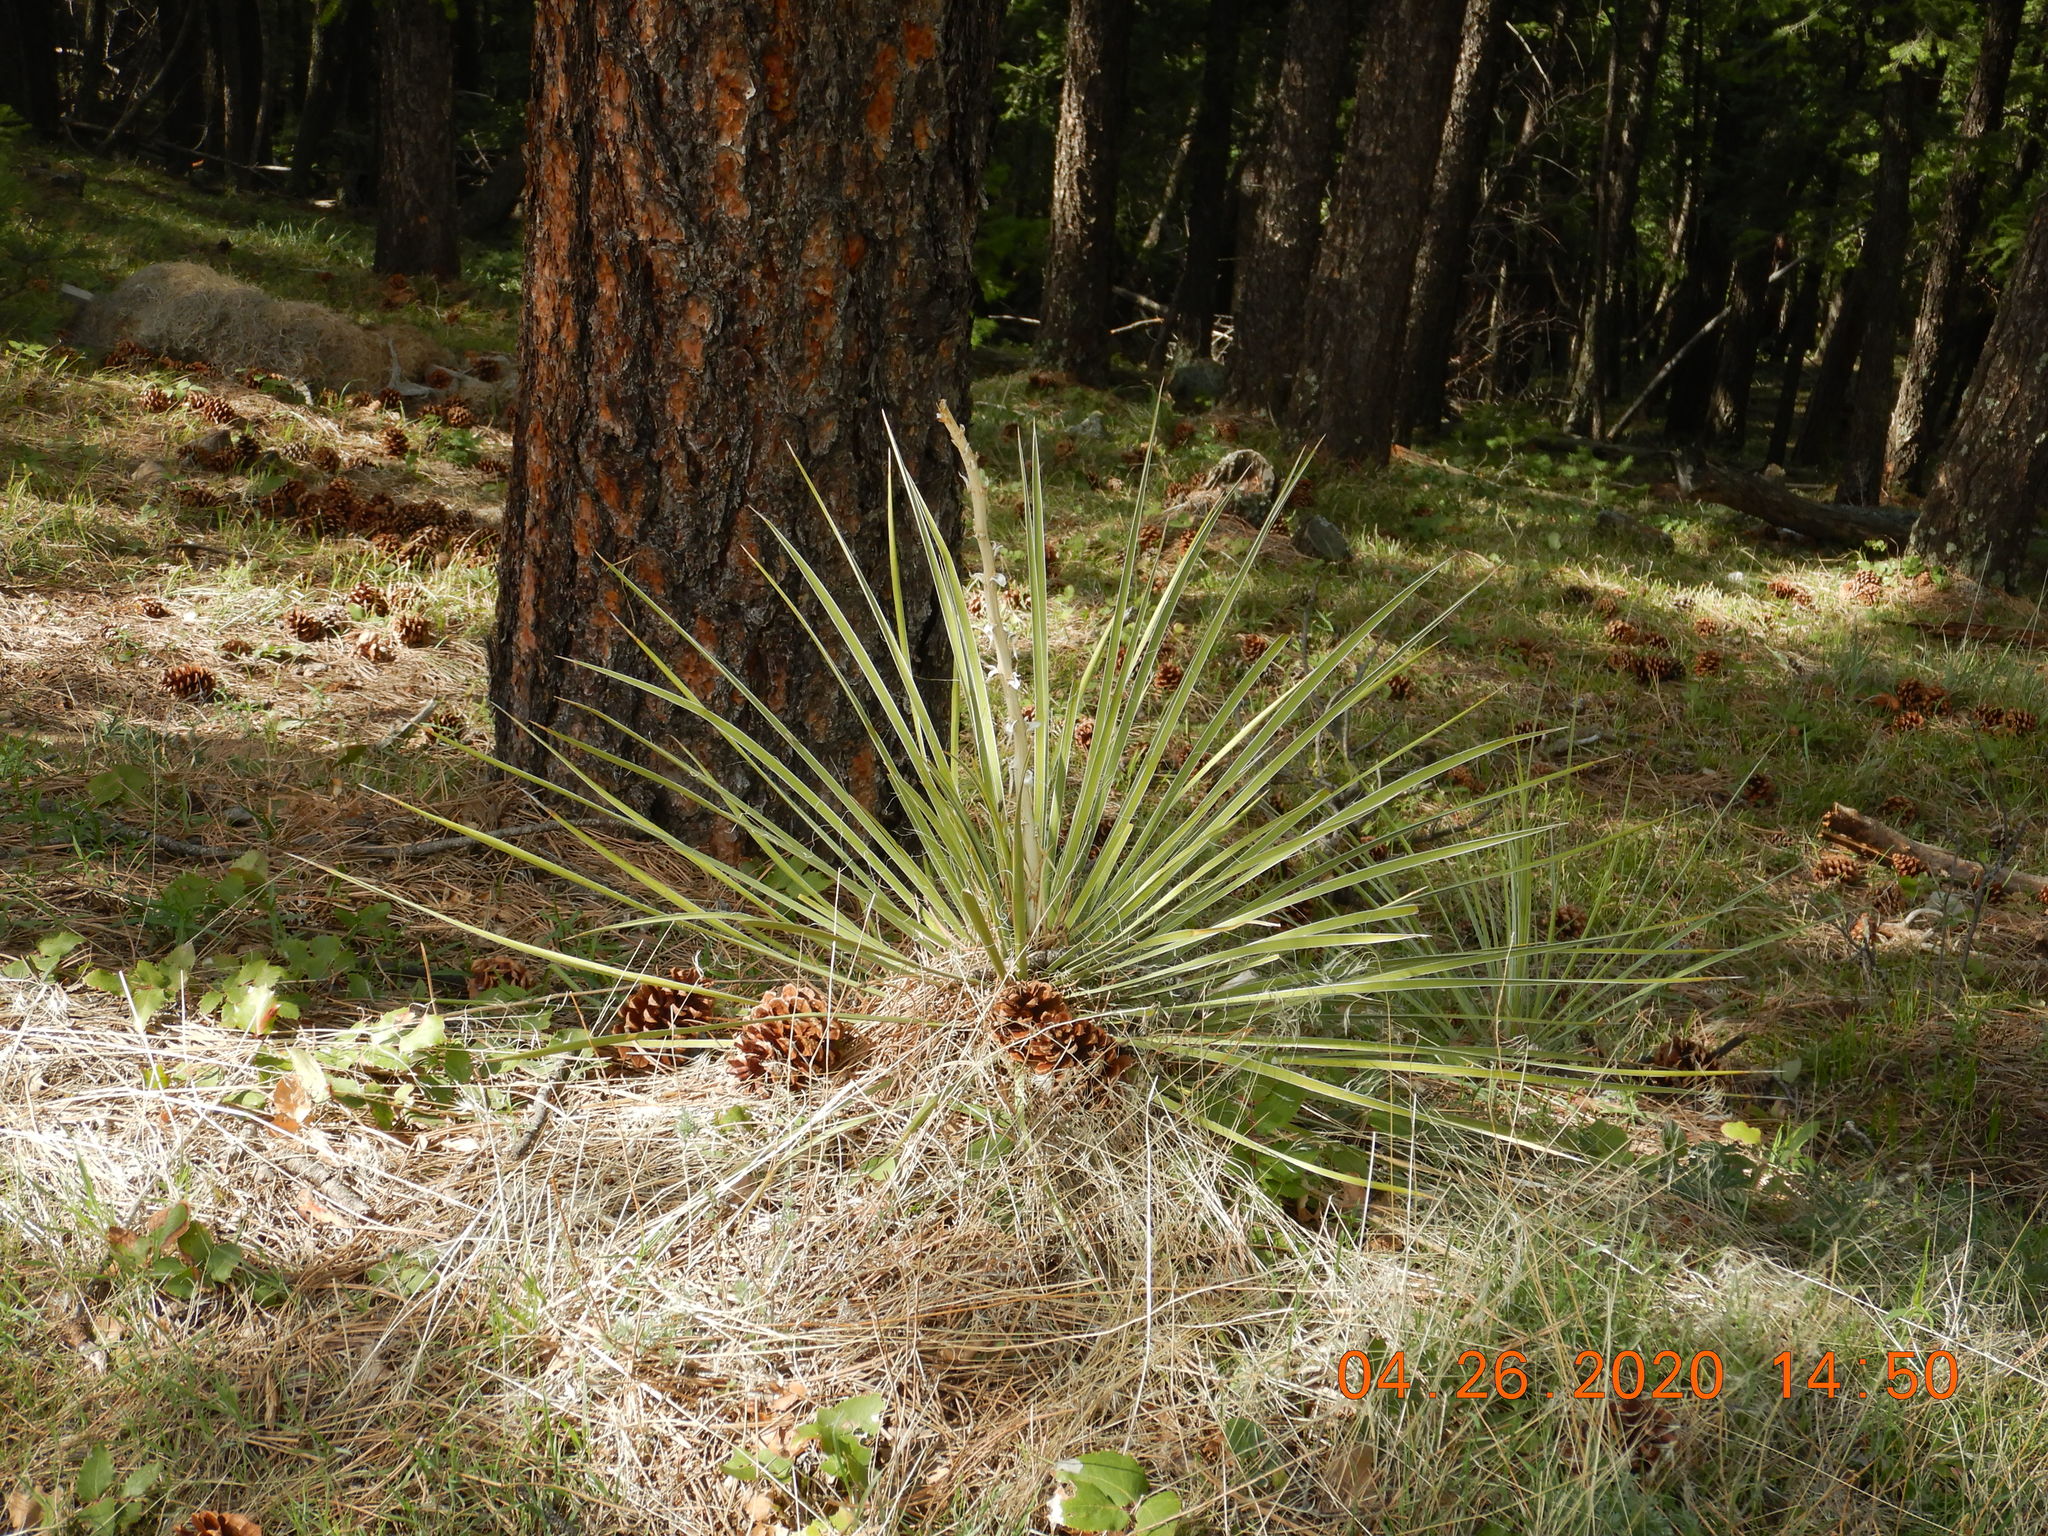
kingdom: Plantae
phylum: Tracheophyta
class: Liliopsida
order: Asparagales
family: Asparagaceae
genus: Yucca
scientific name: Yucca glauca
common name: Great plains yucca
